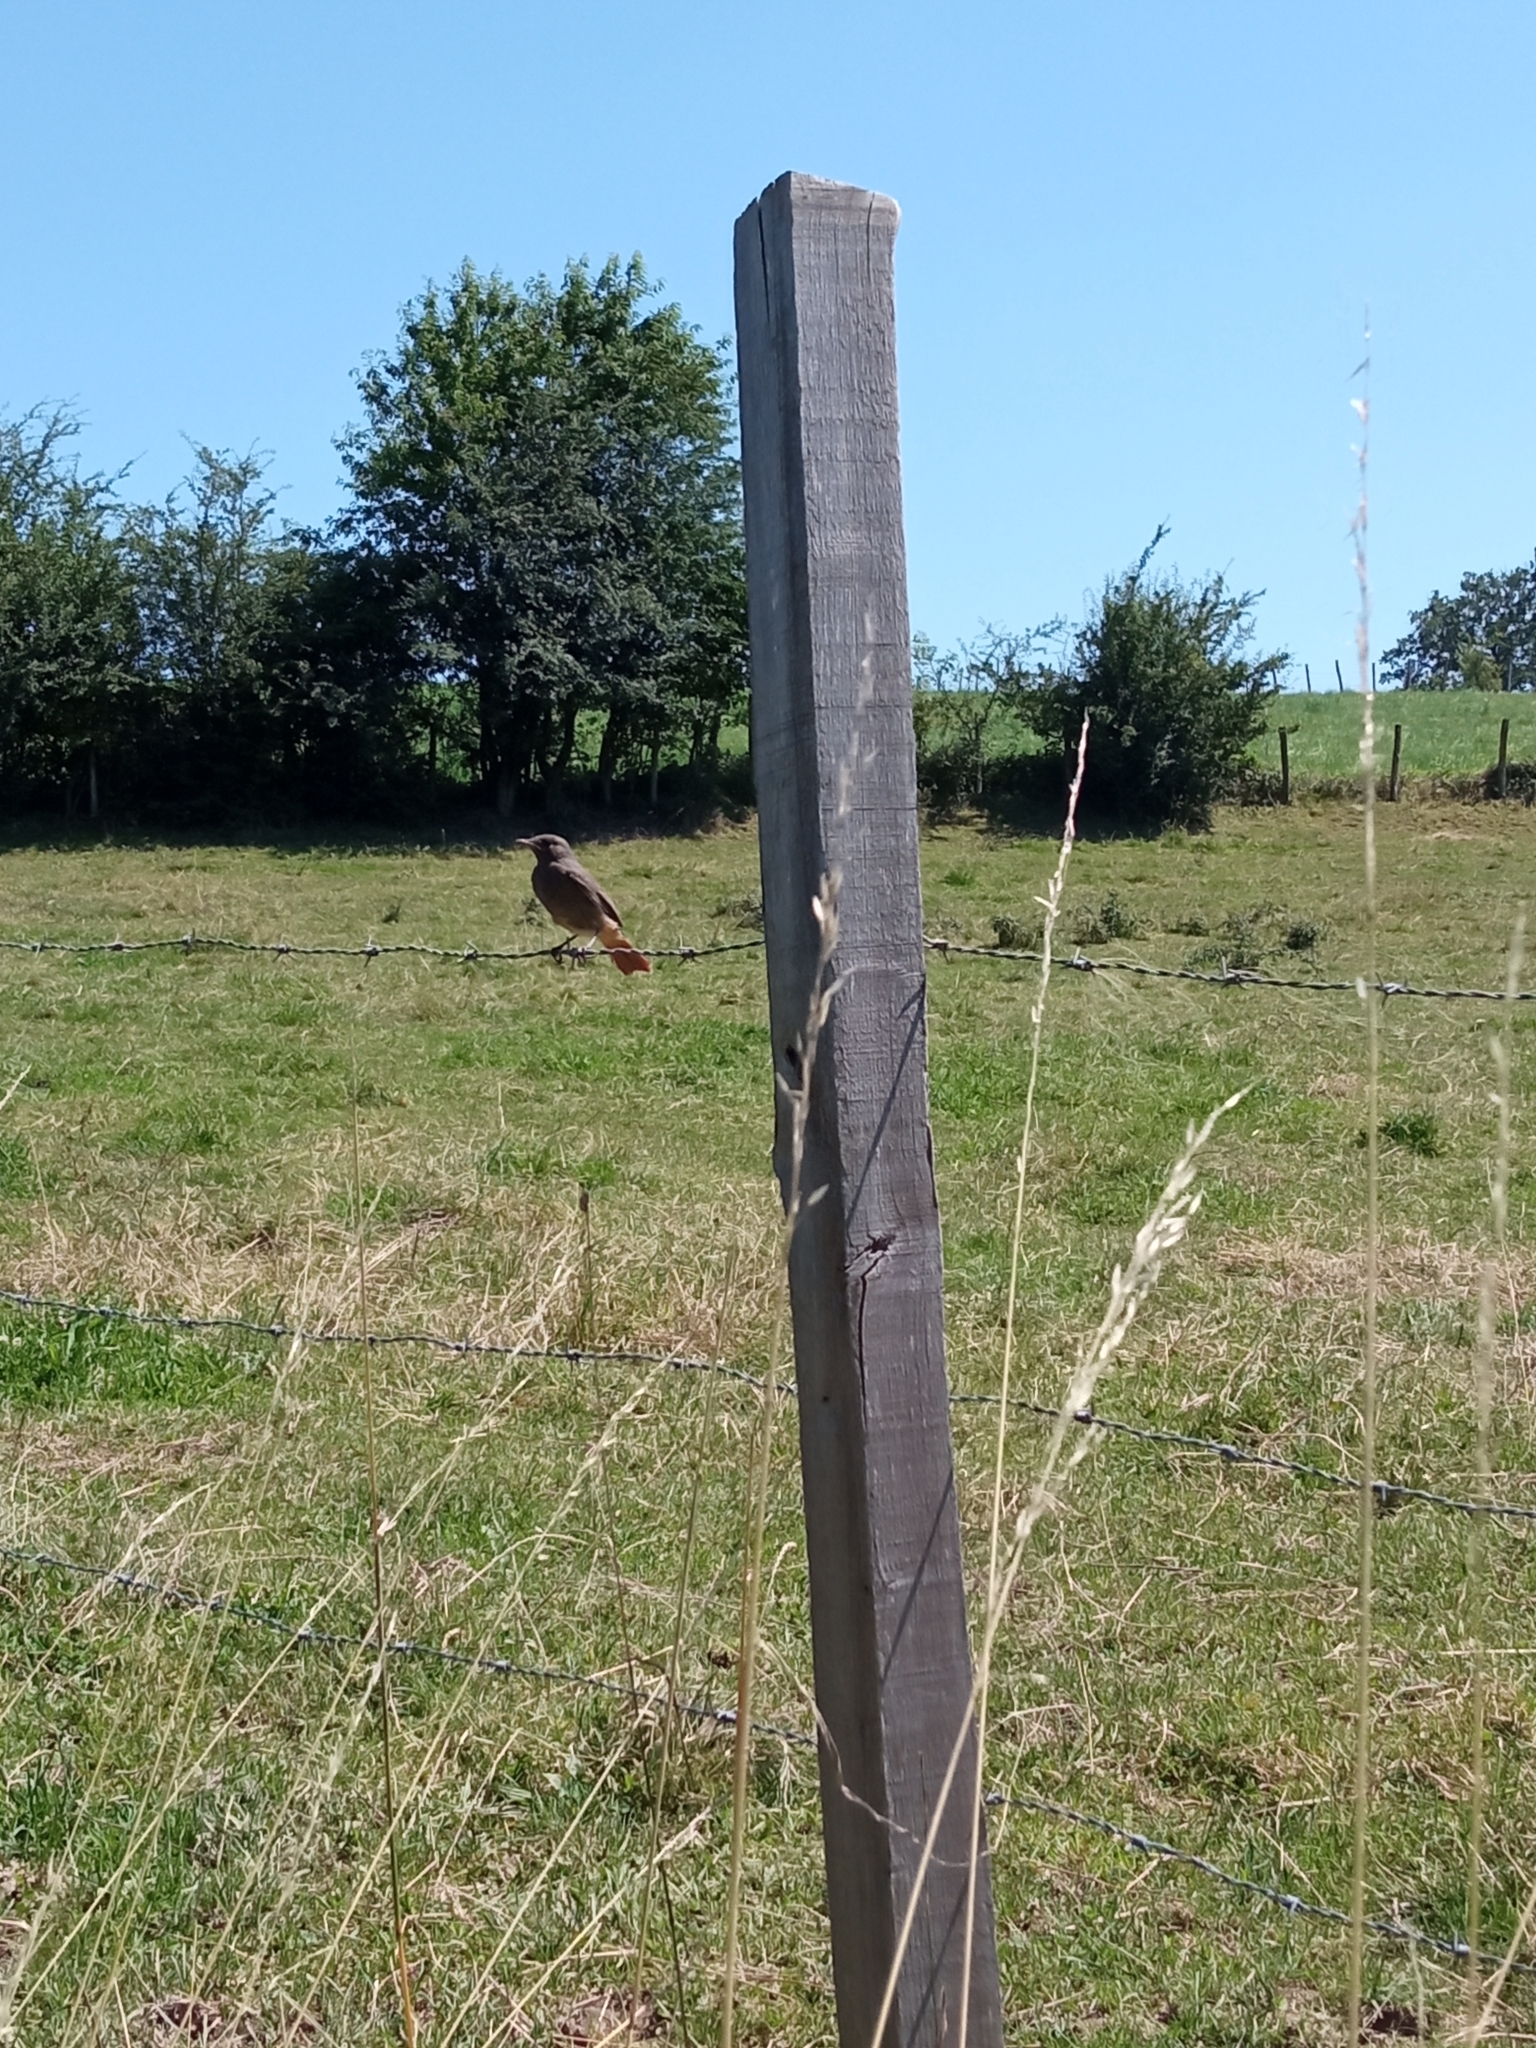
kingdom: Animalia
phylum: Chordata
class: Aves
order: Passeriformes
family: Muscicapidae
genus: Phoenicurus
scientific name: Phoenicurus ochruros
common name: Black redstart
